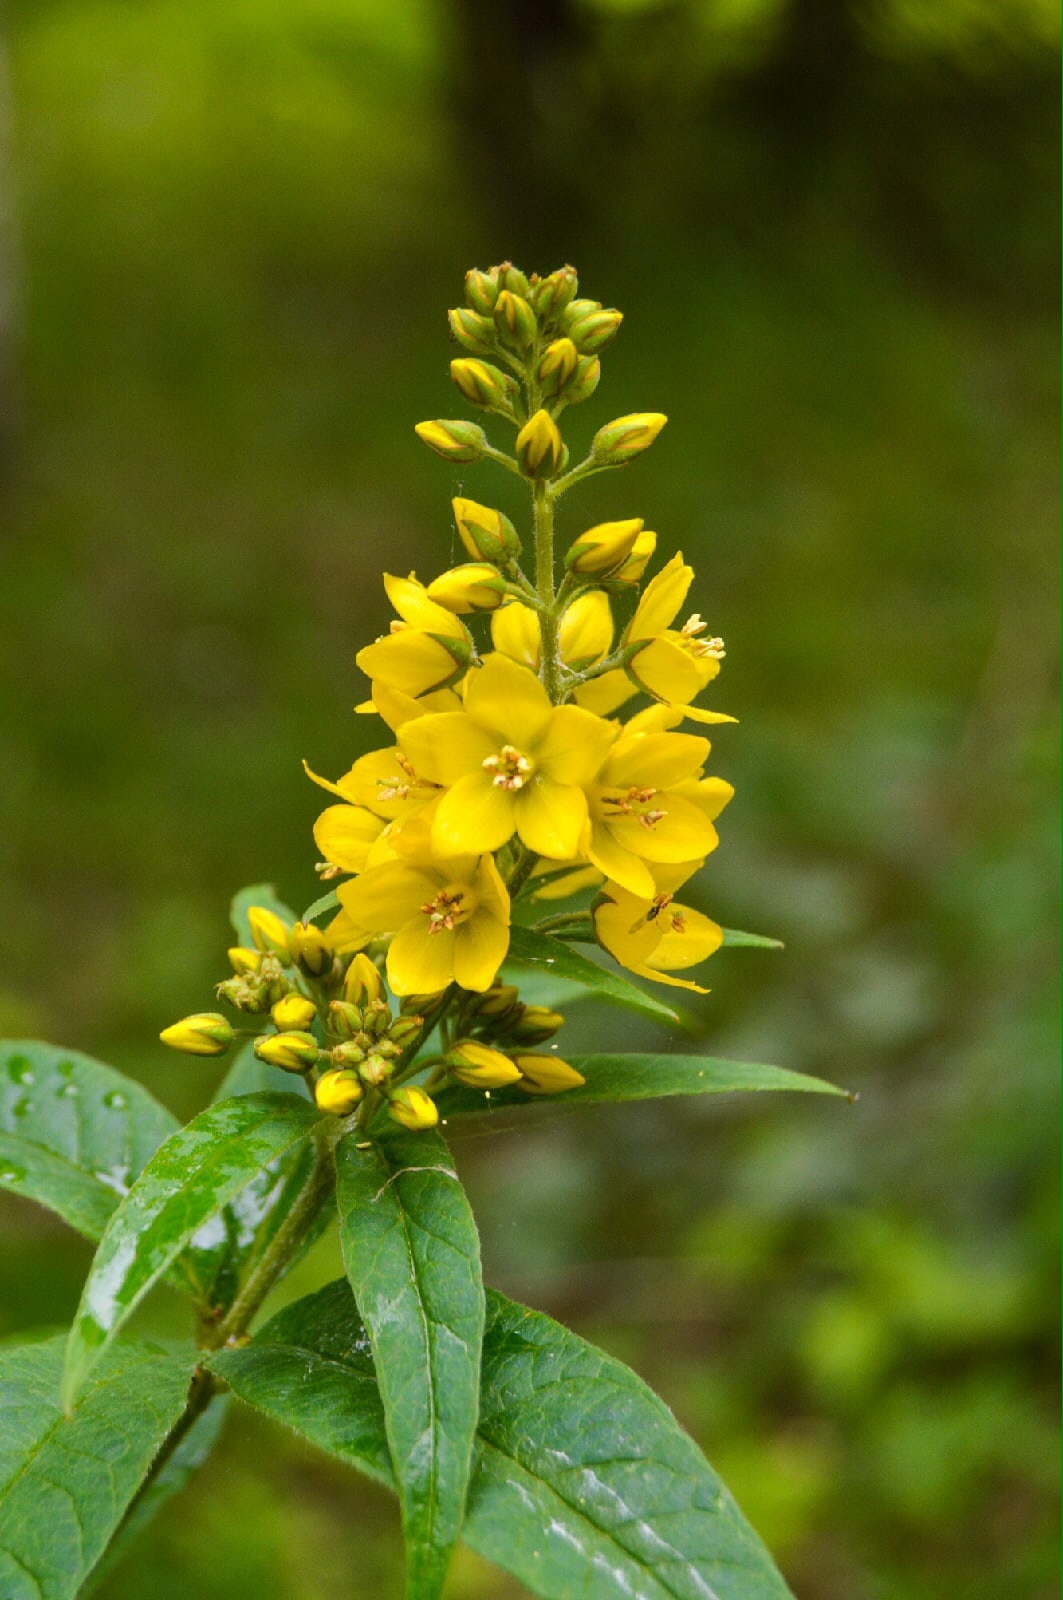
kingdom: Plantae
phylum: Tracheophyta
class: Magnoliopsida
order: Ericales
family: Primulaceae
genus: Lysimachia
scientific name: Lysimachia vulgaris
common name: Yellow loosestrife
